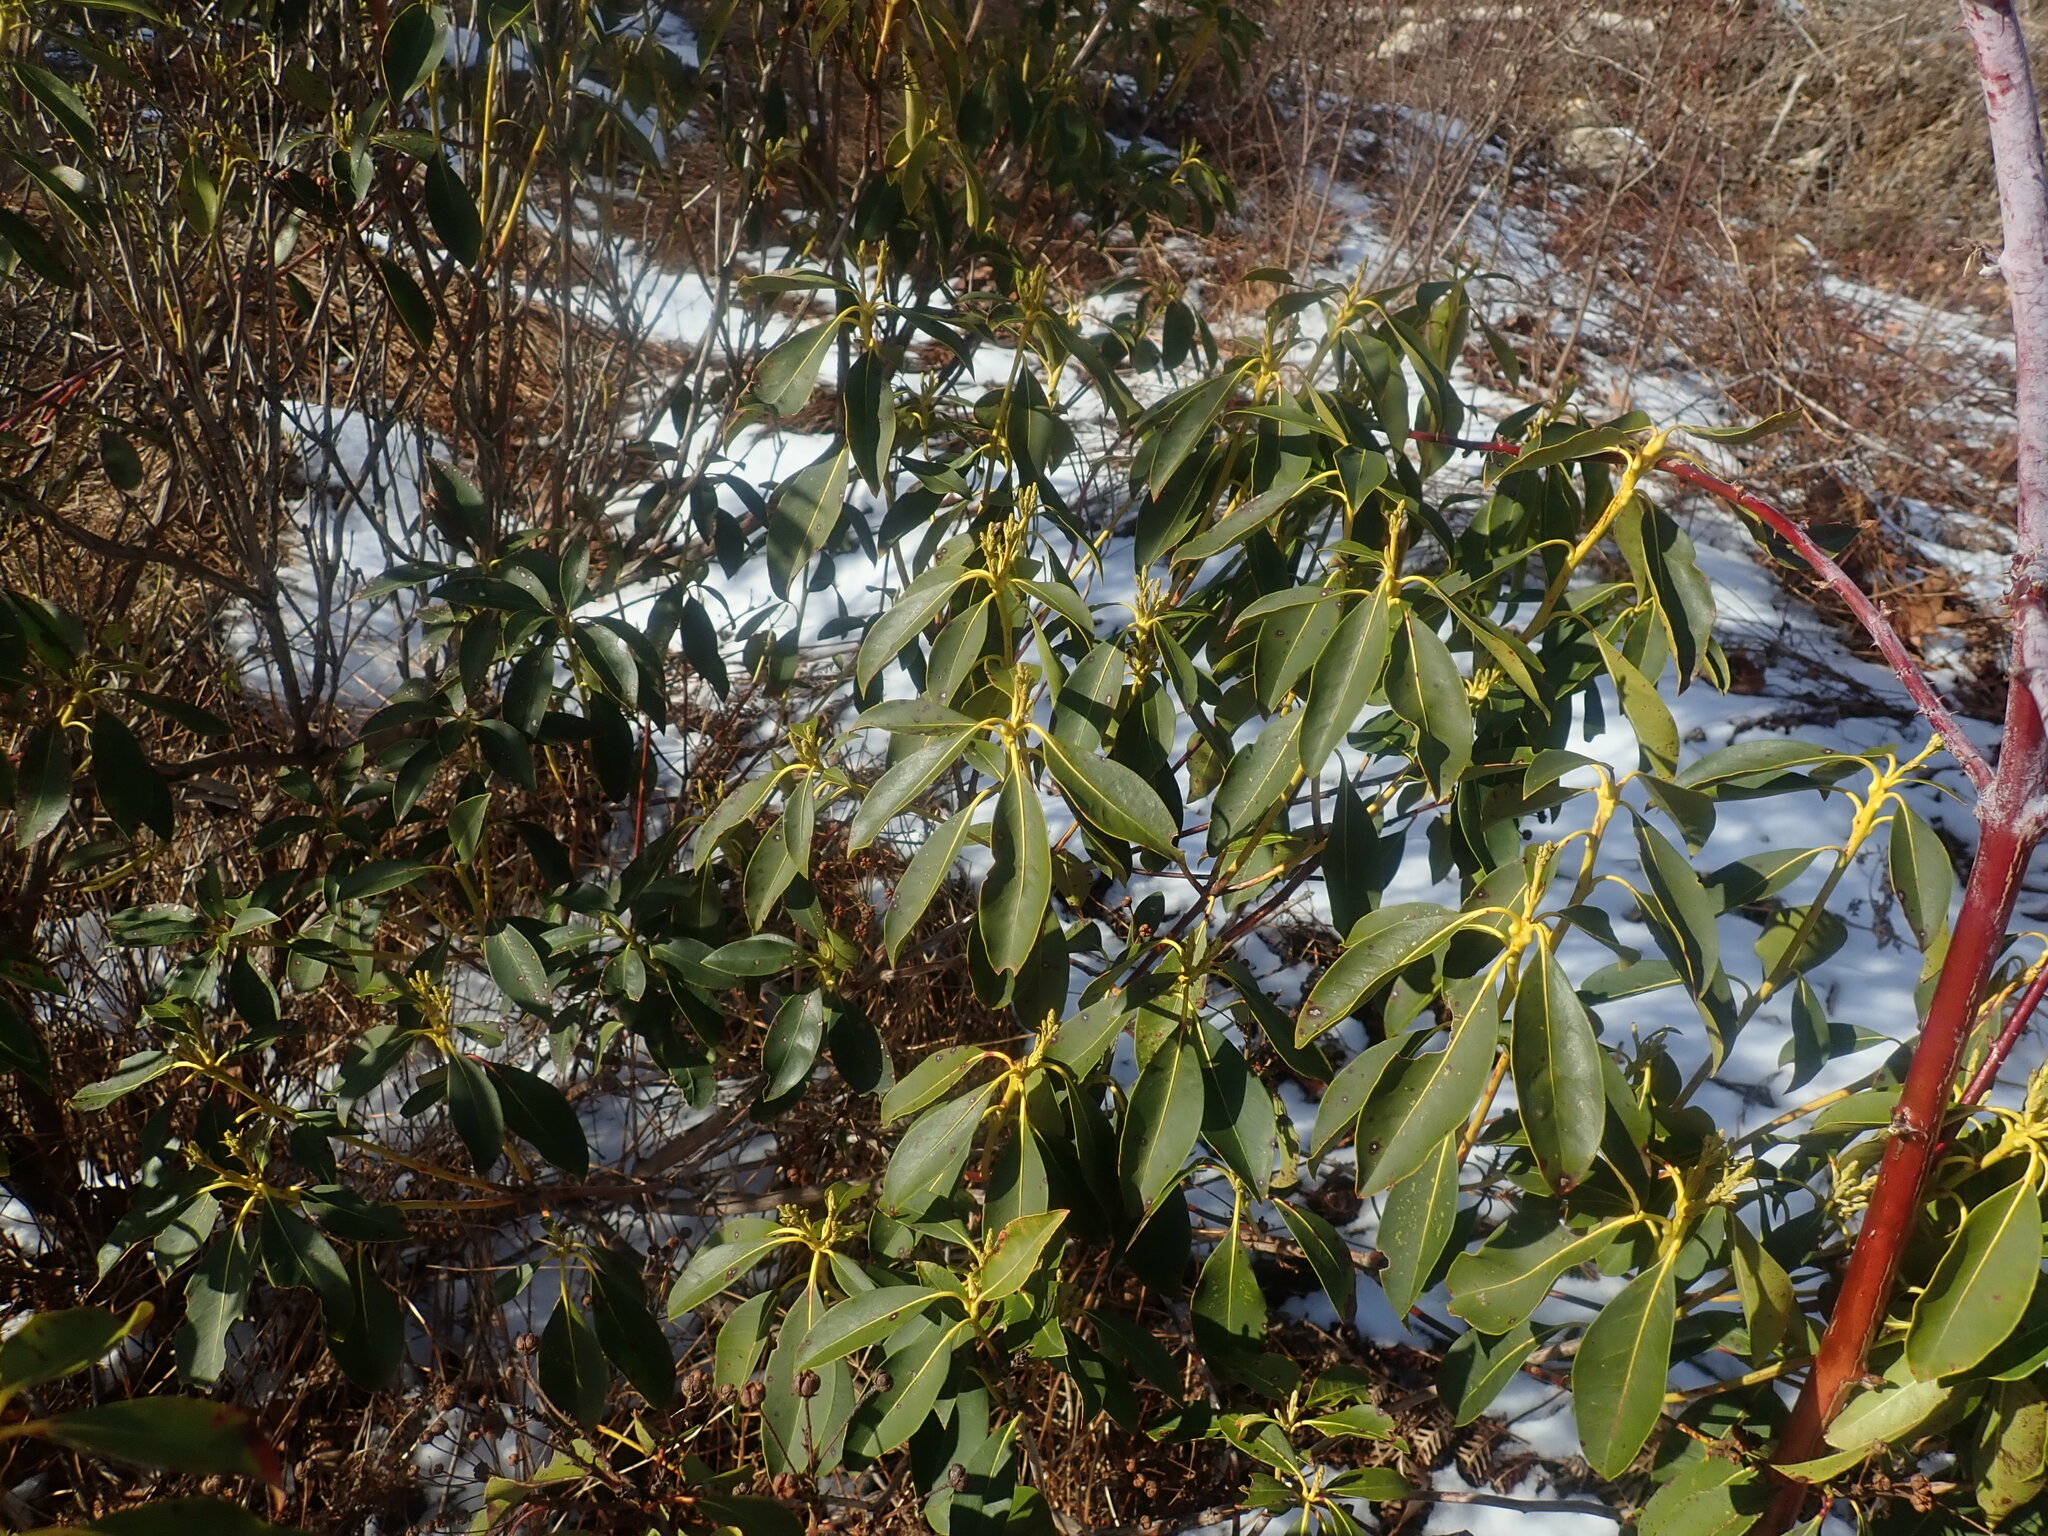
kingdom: Plantae
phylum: Tracheophyta
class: Magnoliopsida
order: Ericales
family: Ericaceae
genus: Kalmia
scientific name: Kalmia latifolia
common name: Mountain-laurel
